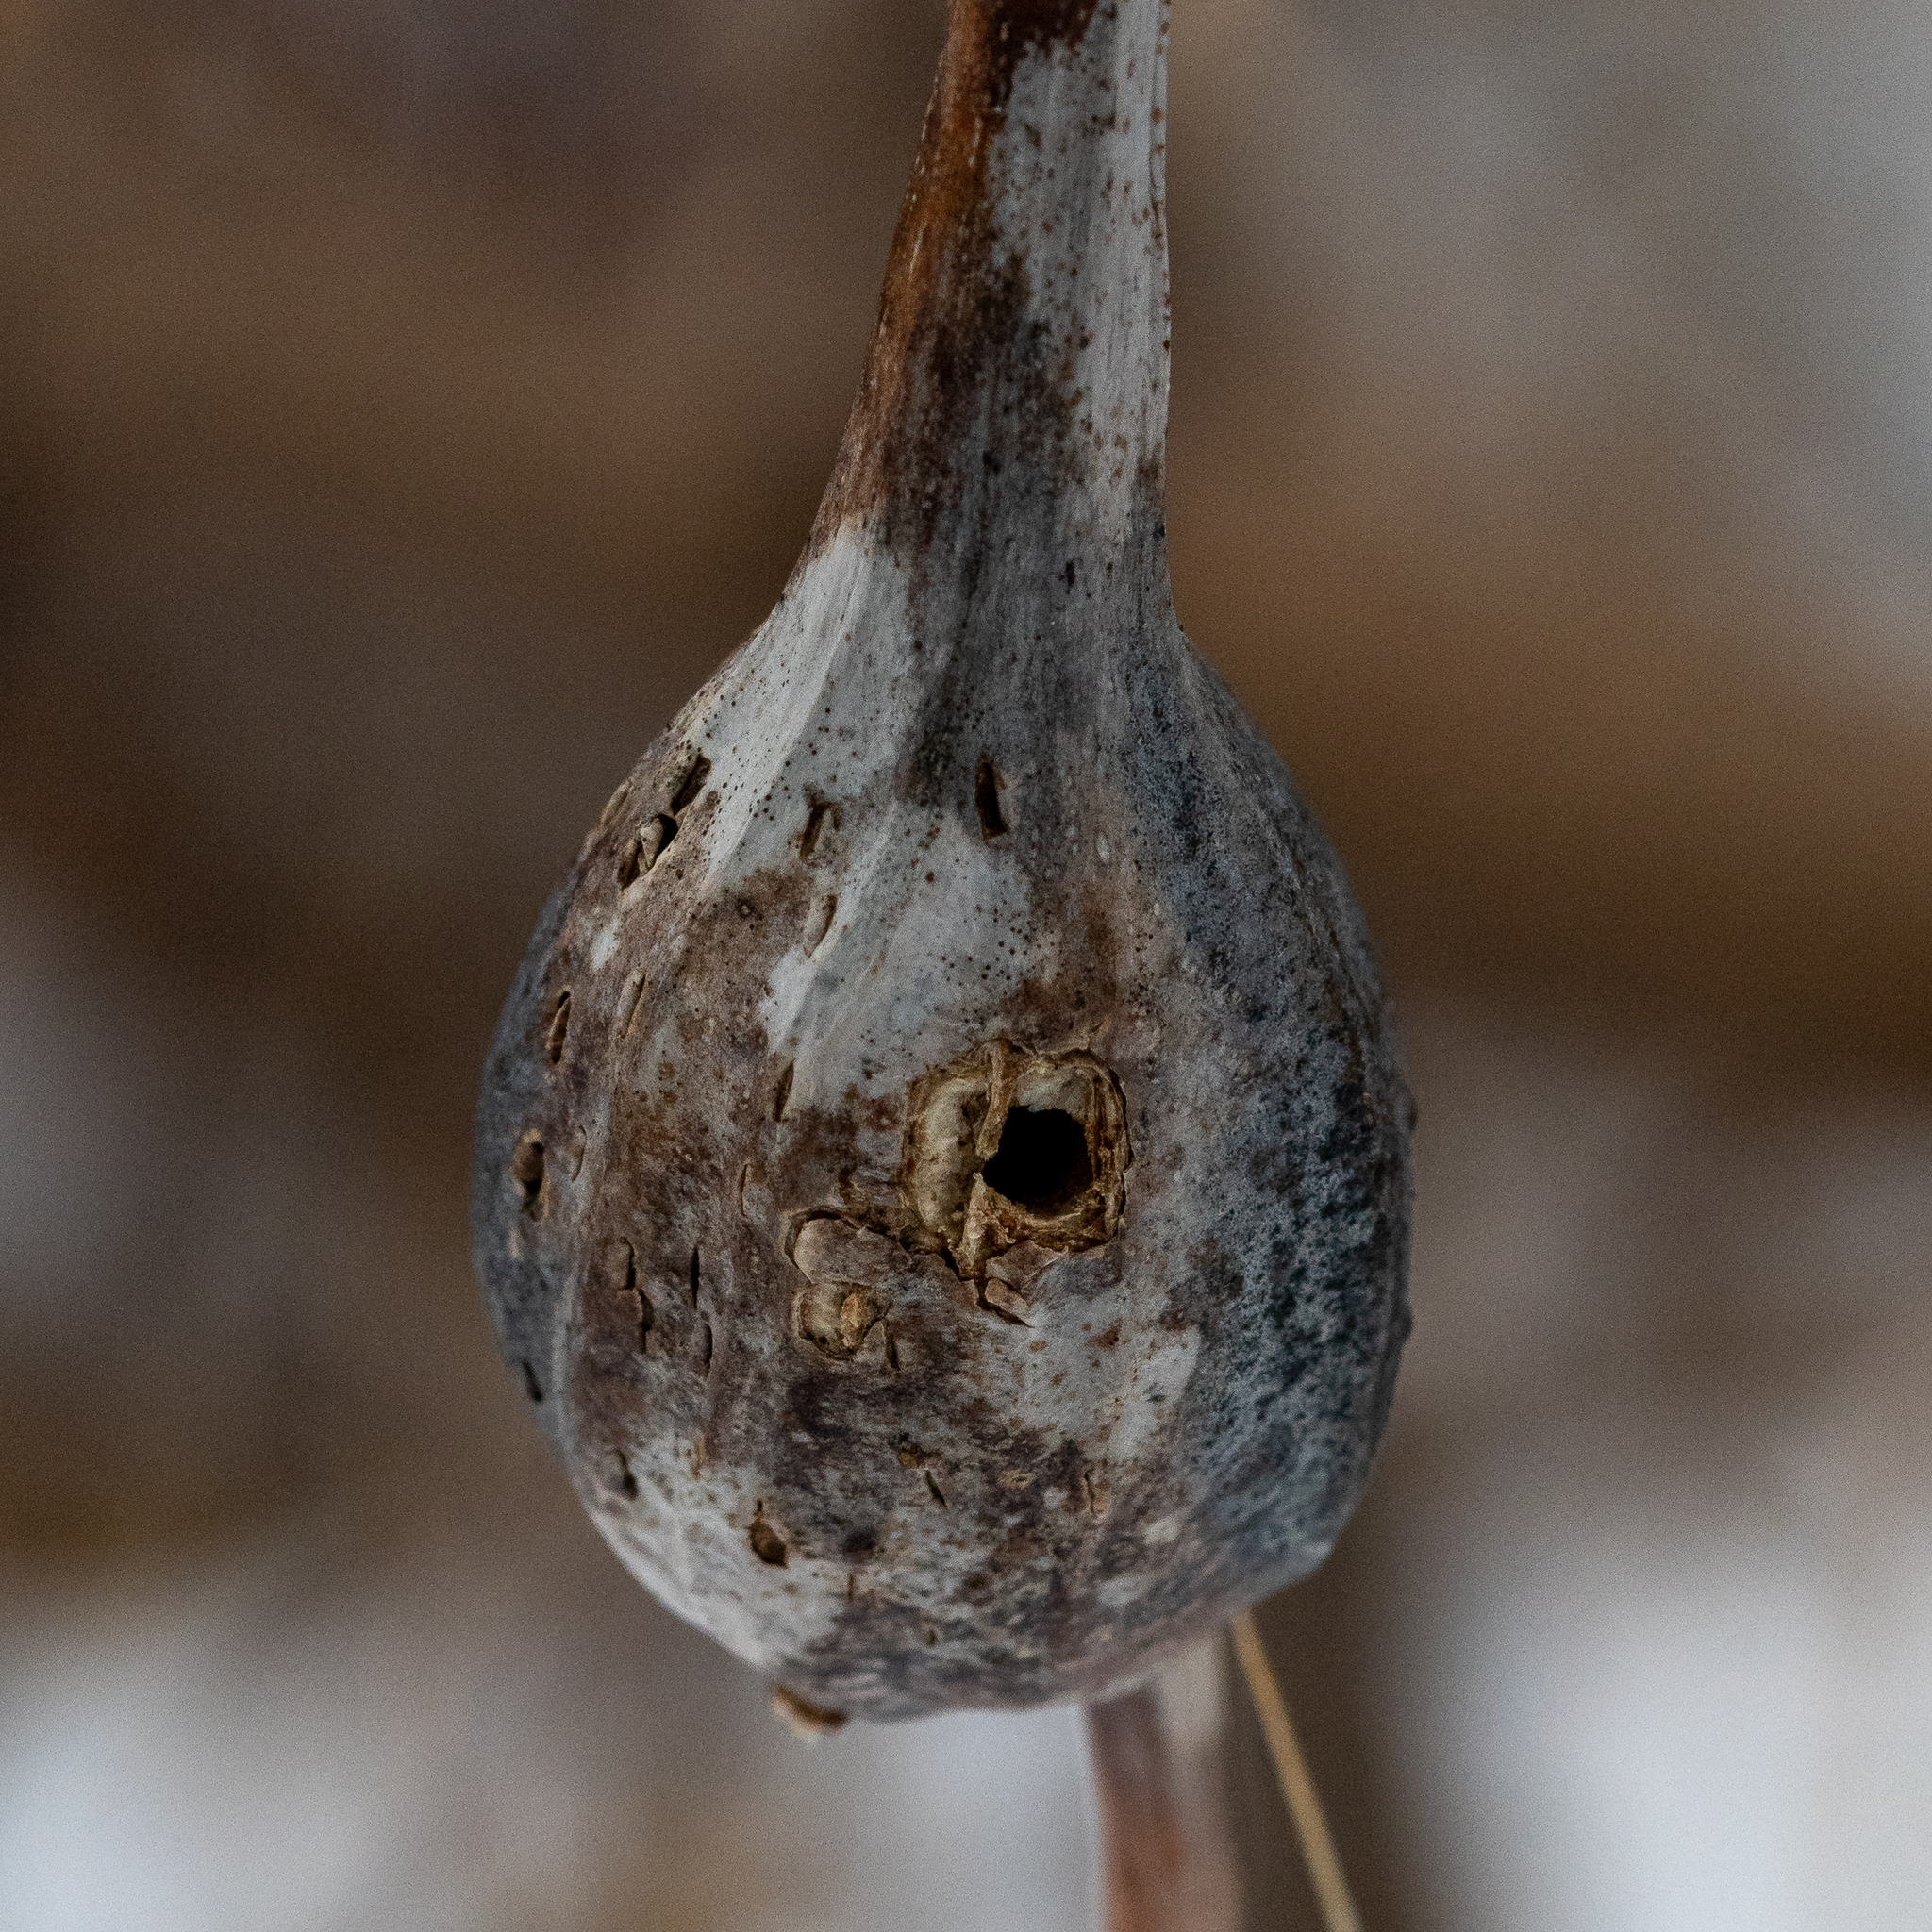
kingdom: Animalia
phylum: Arthropoda
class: Insecta
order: Diptera
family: Tephritidae
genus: Eurosta
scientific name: Eurosta solidaginis
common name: Goldenrod gall fly
